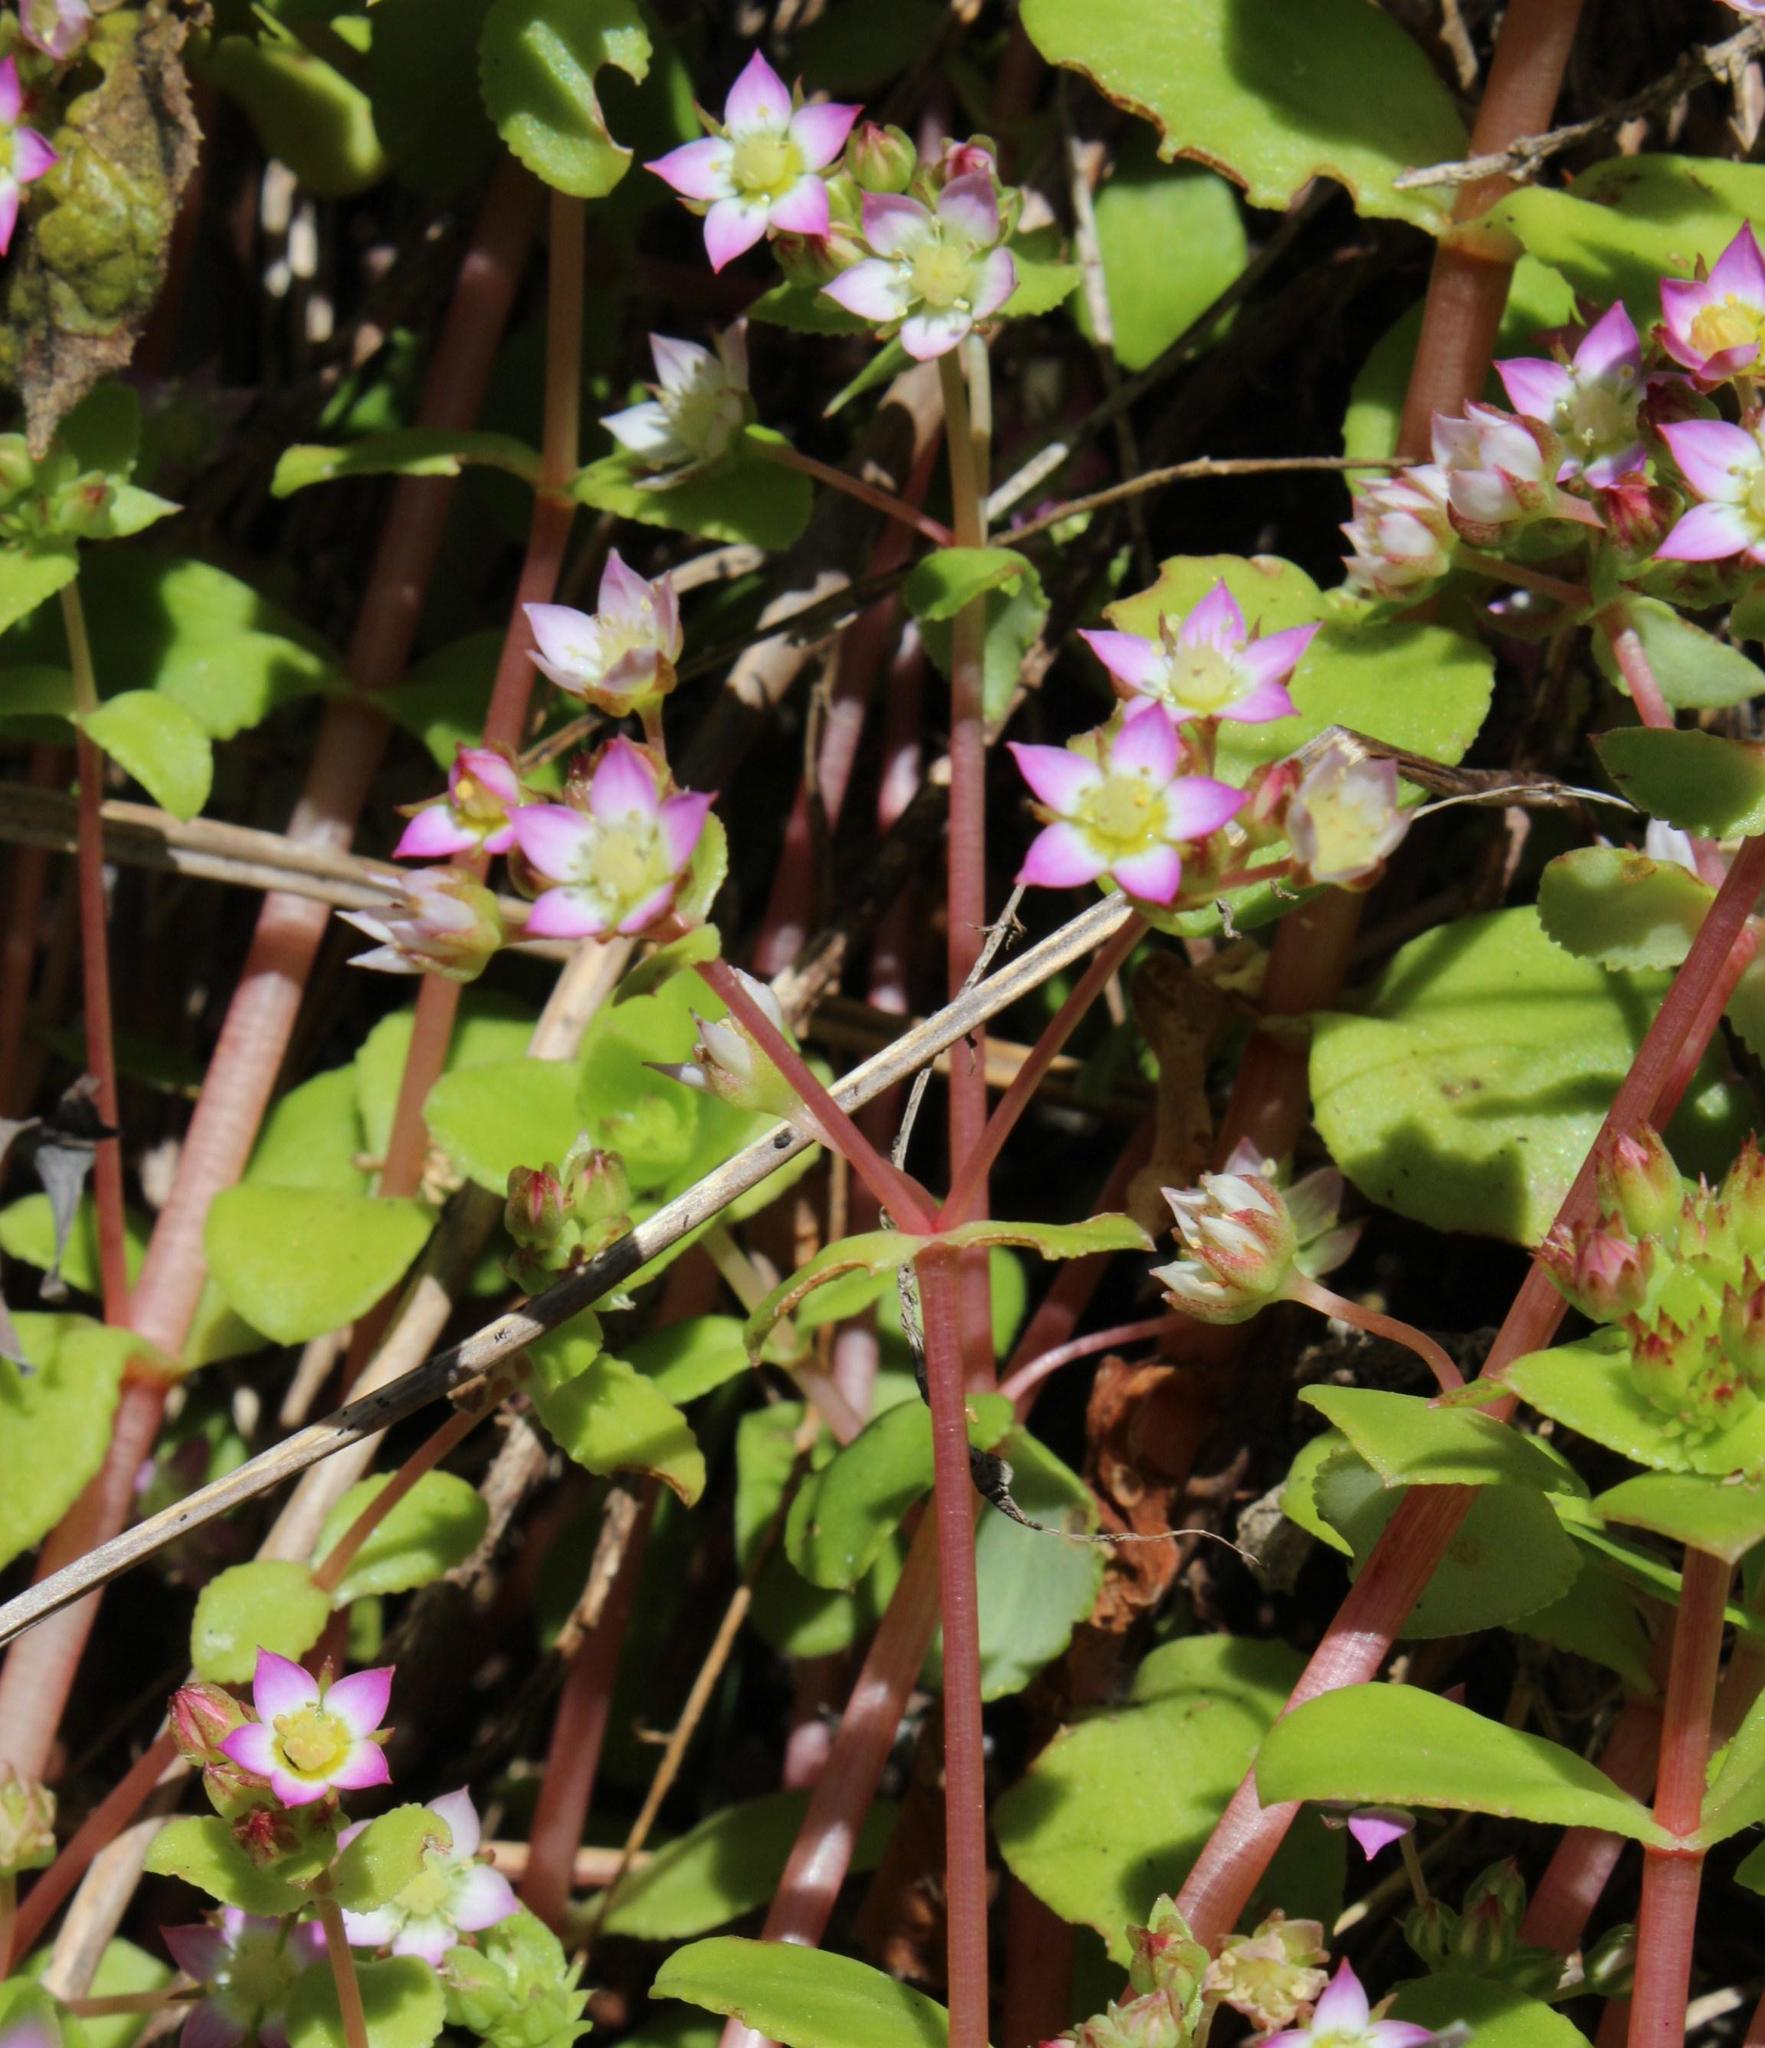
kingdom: Plantae
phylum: Tracheophyta
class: Magnoliopsida
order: Saxifragales
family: Crassulaceae
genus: Crassula
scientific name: Crassula pellucida
